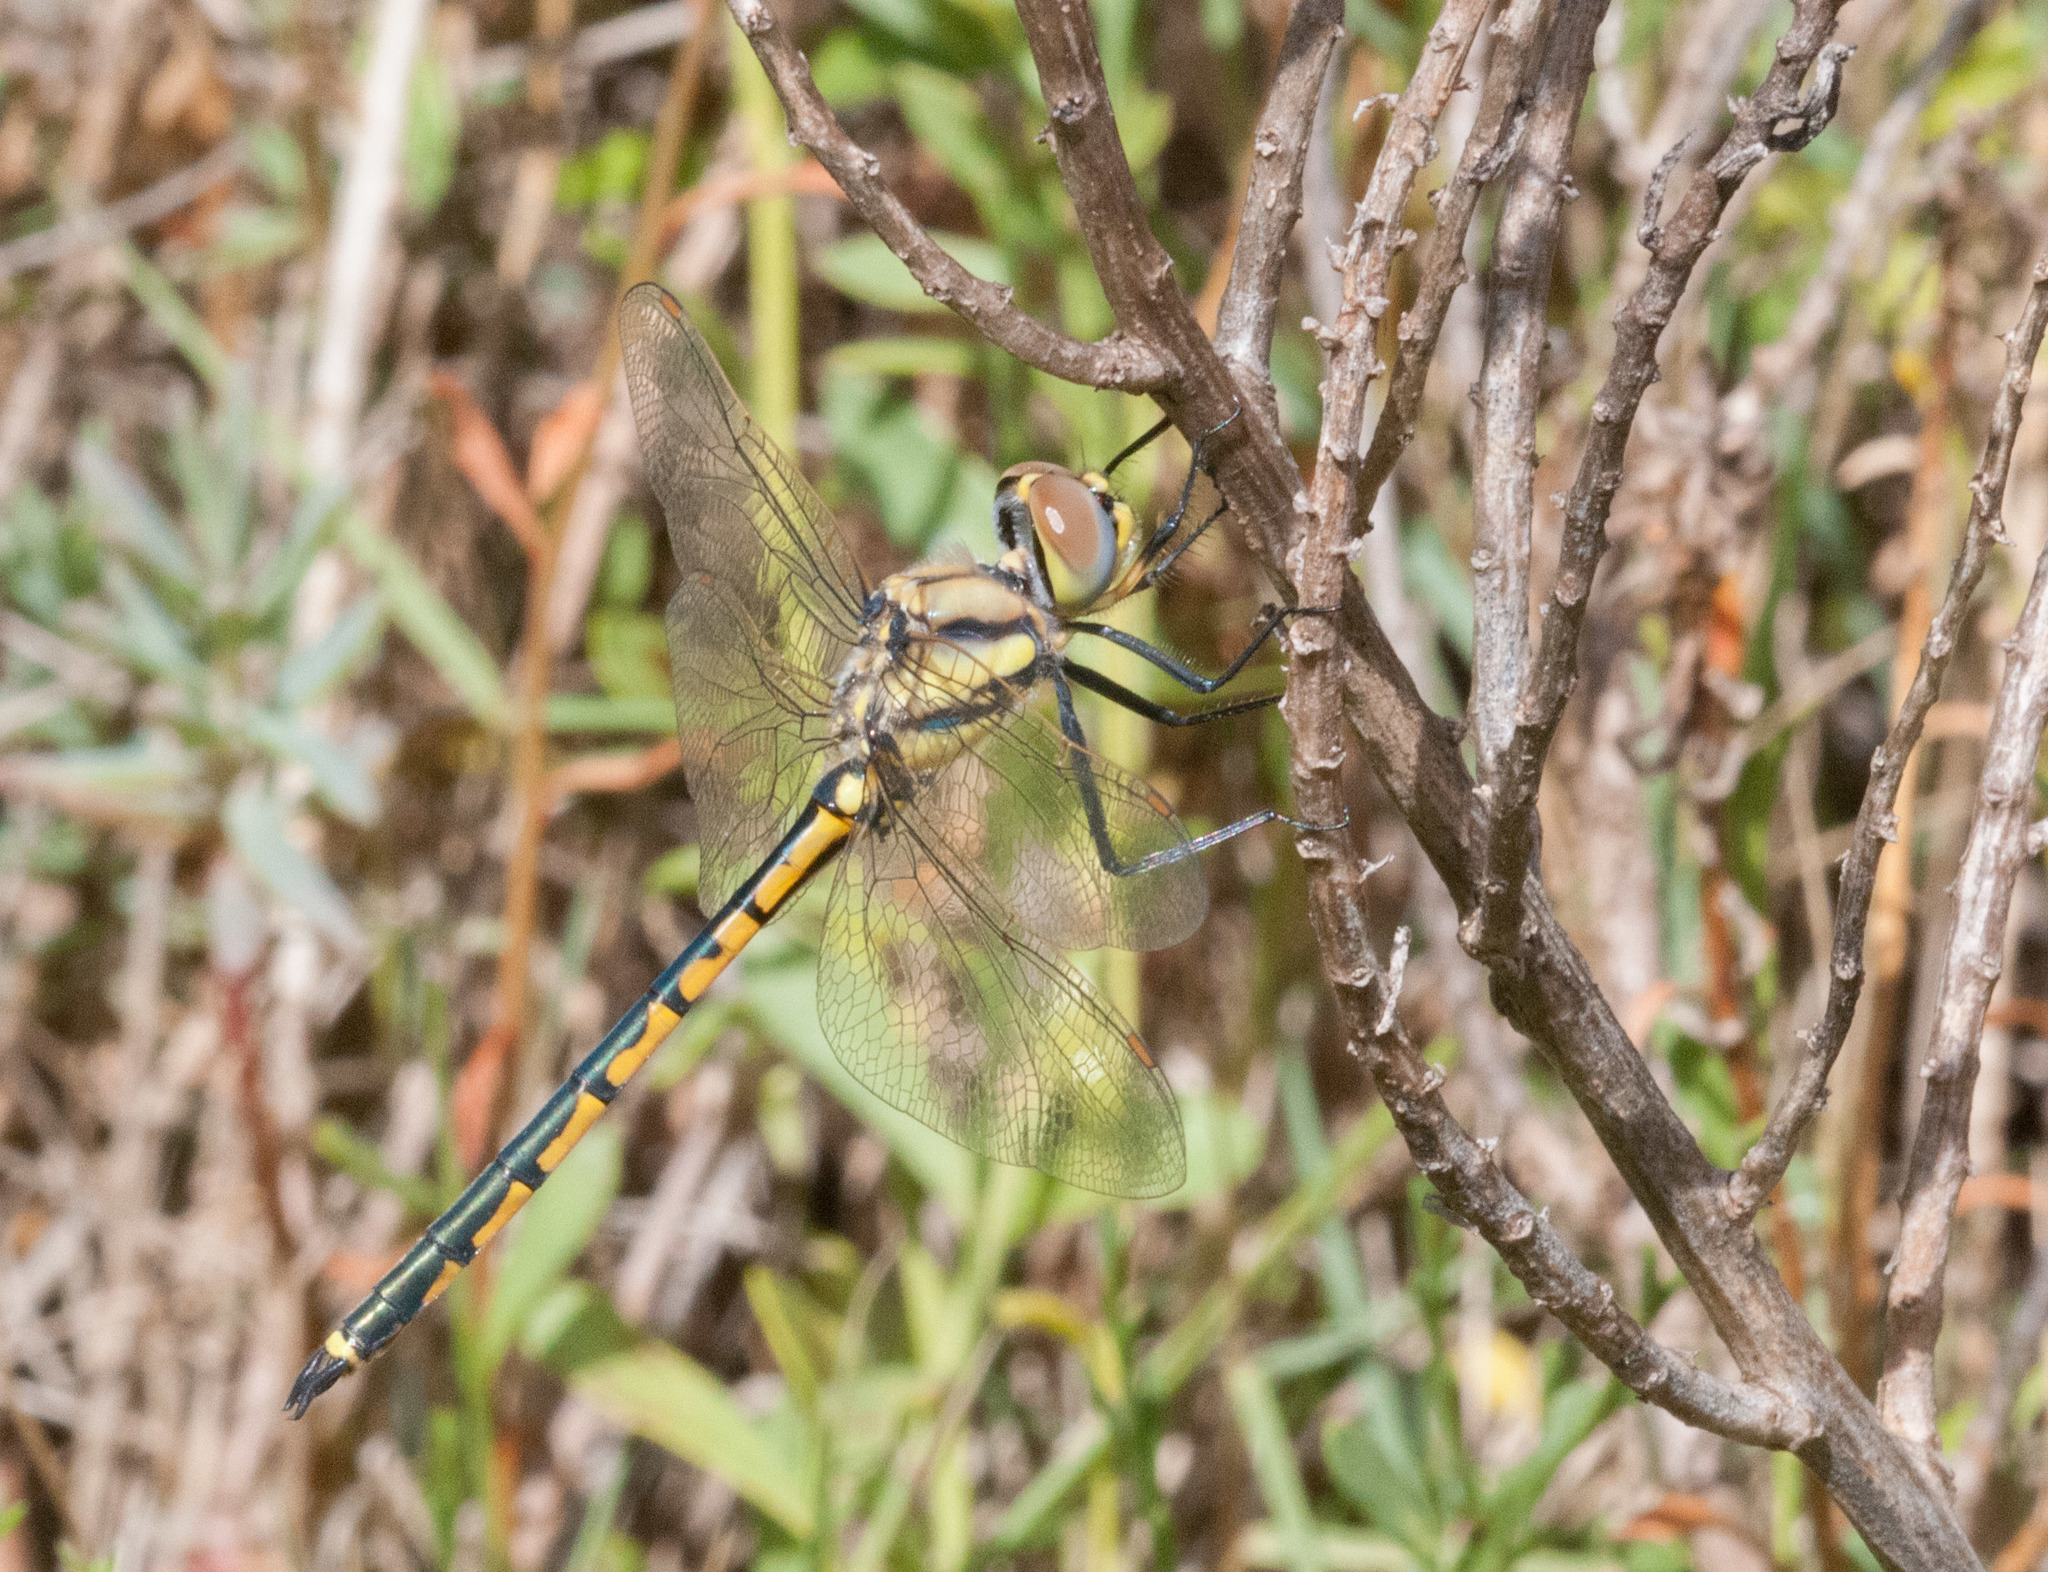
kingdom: Animalia
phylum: Arthropoda
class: Insecta
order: Odonata
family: Corduliidae
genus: Hemicordulia
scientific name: Hemicordulia tau
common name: Tau emerald
